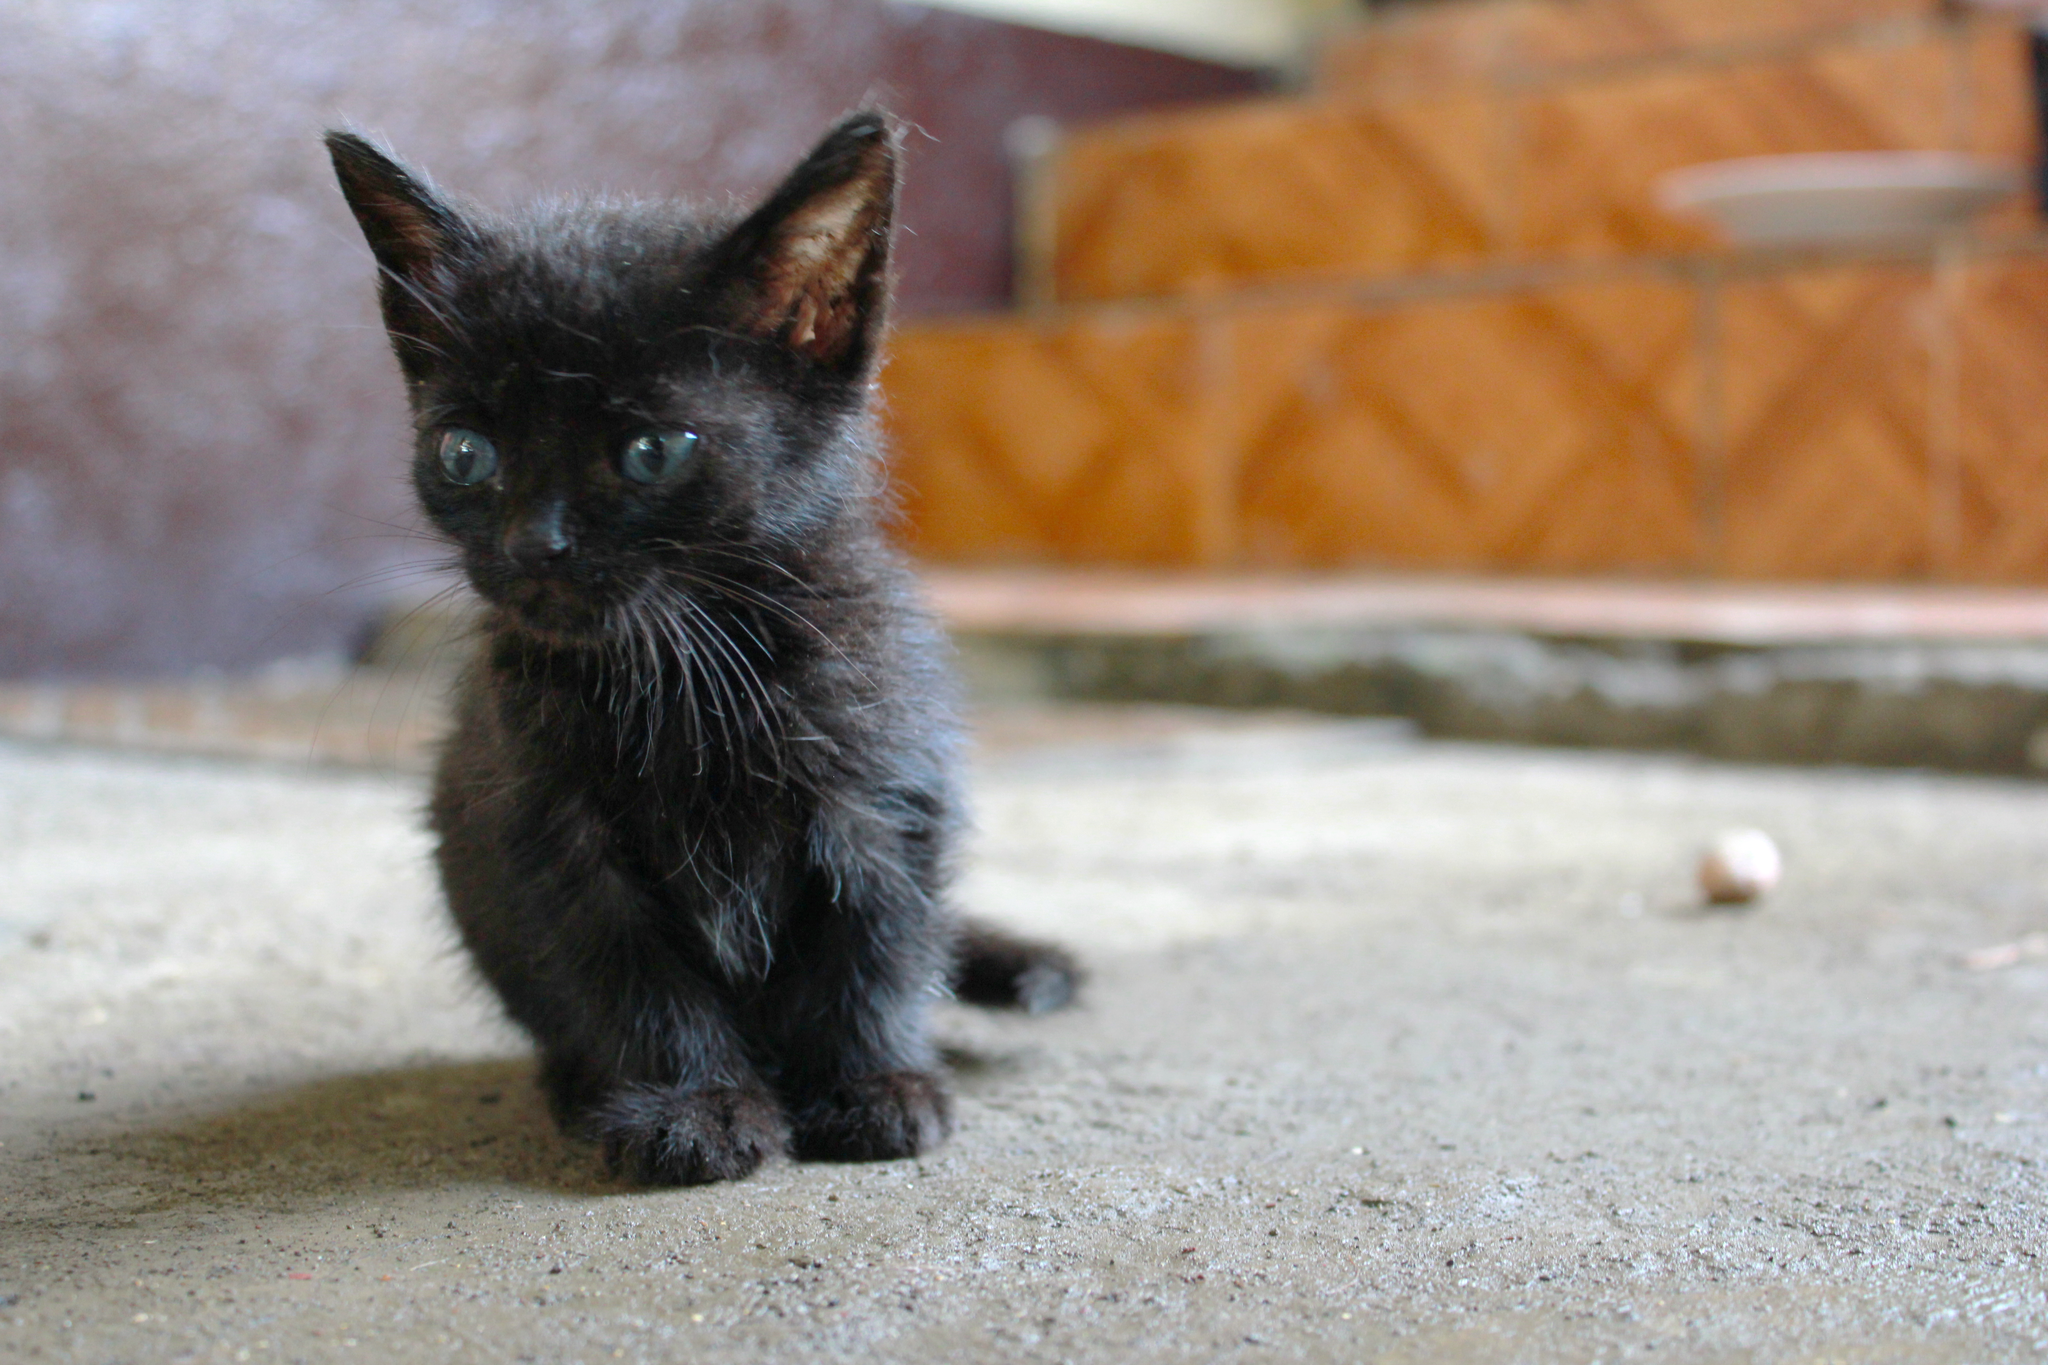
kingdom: Animalia
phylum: Chordata
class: Mammalia
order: Carnivora
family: Felidae
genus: Felis
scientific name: Felis catus
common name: Domestic cat
